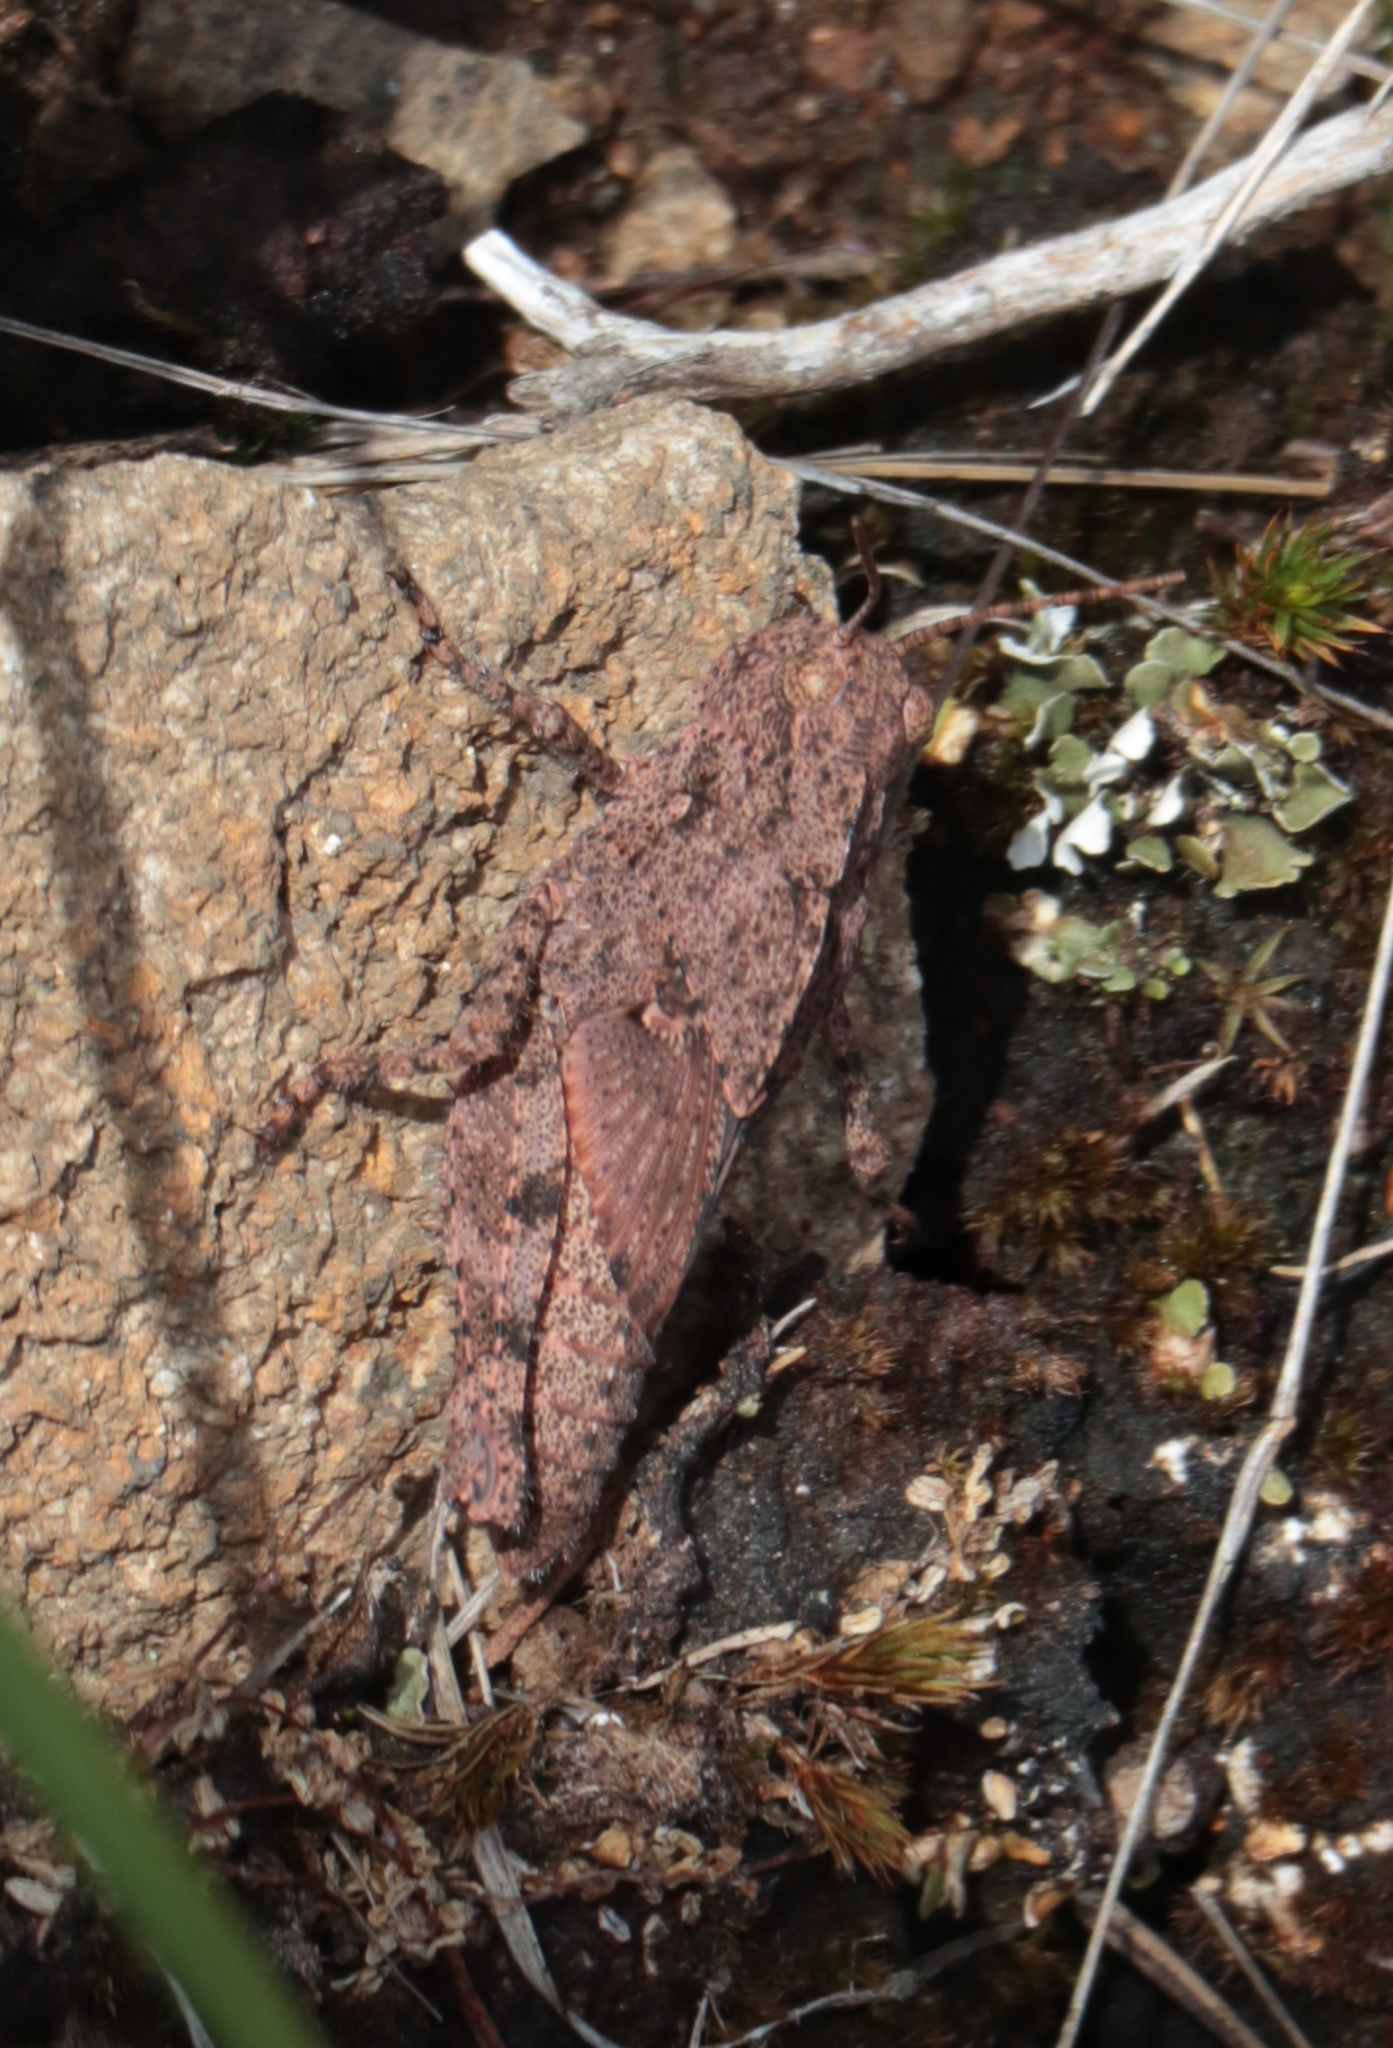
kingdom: Animalia
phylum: Arthropoda
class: Insecta
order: Orthoptera
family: Acrididae
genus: Dissosteira
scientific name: Dissosteira carolina
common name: Carolina grasshopper
